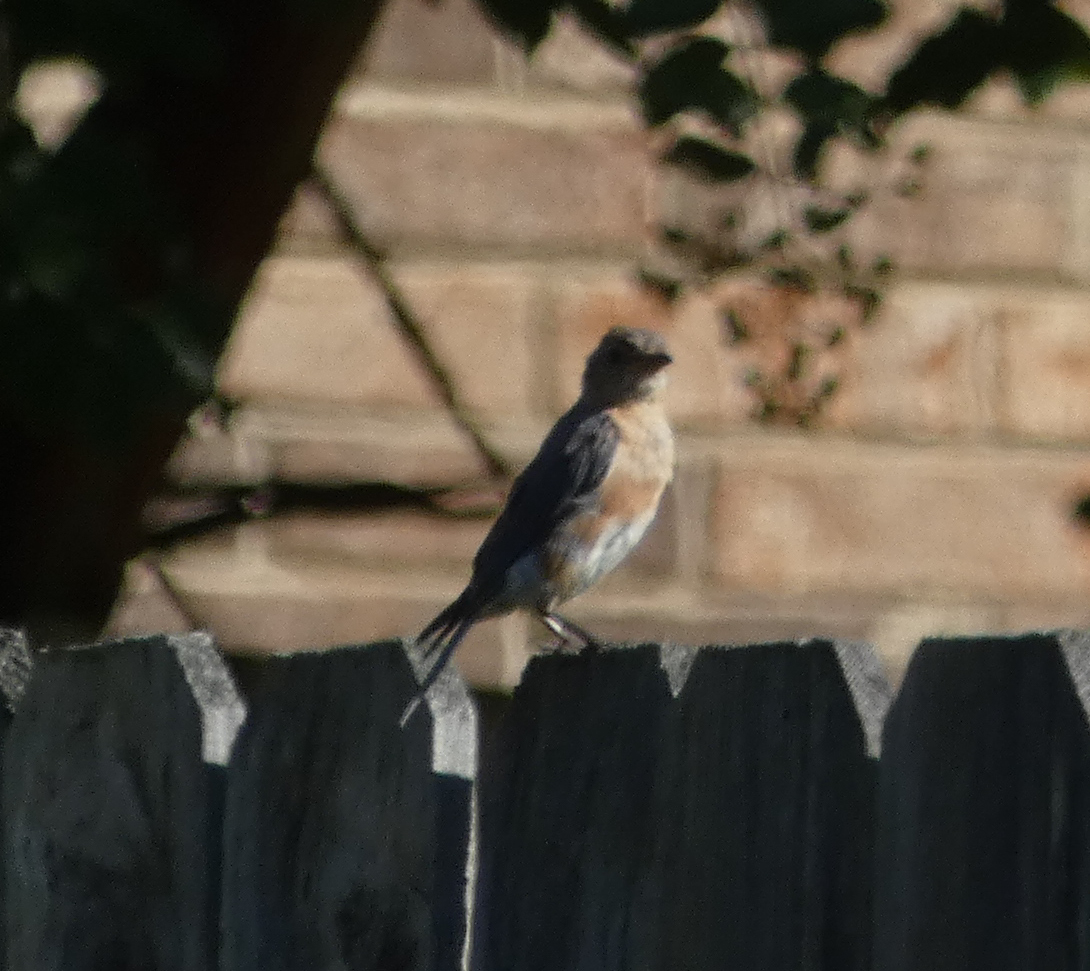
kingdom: Animalia
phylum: Chordata
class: Aves
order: Passeriformes
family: Turdidae
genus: Sialia
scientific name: Sialia sialis
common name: Eastern bluebird
